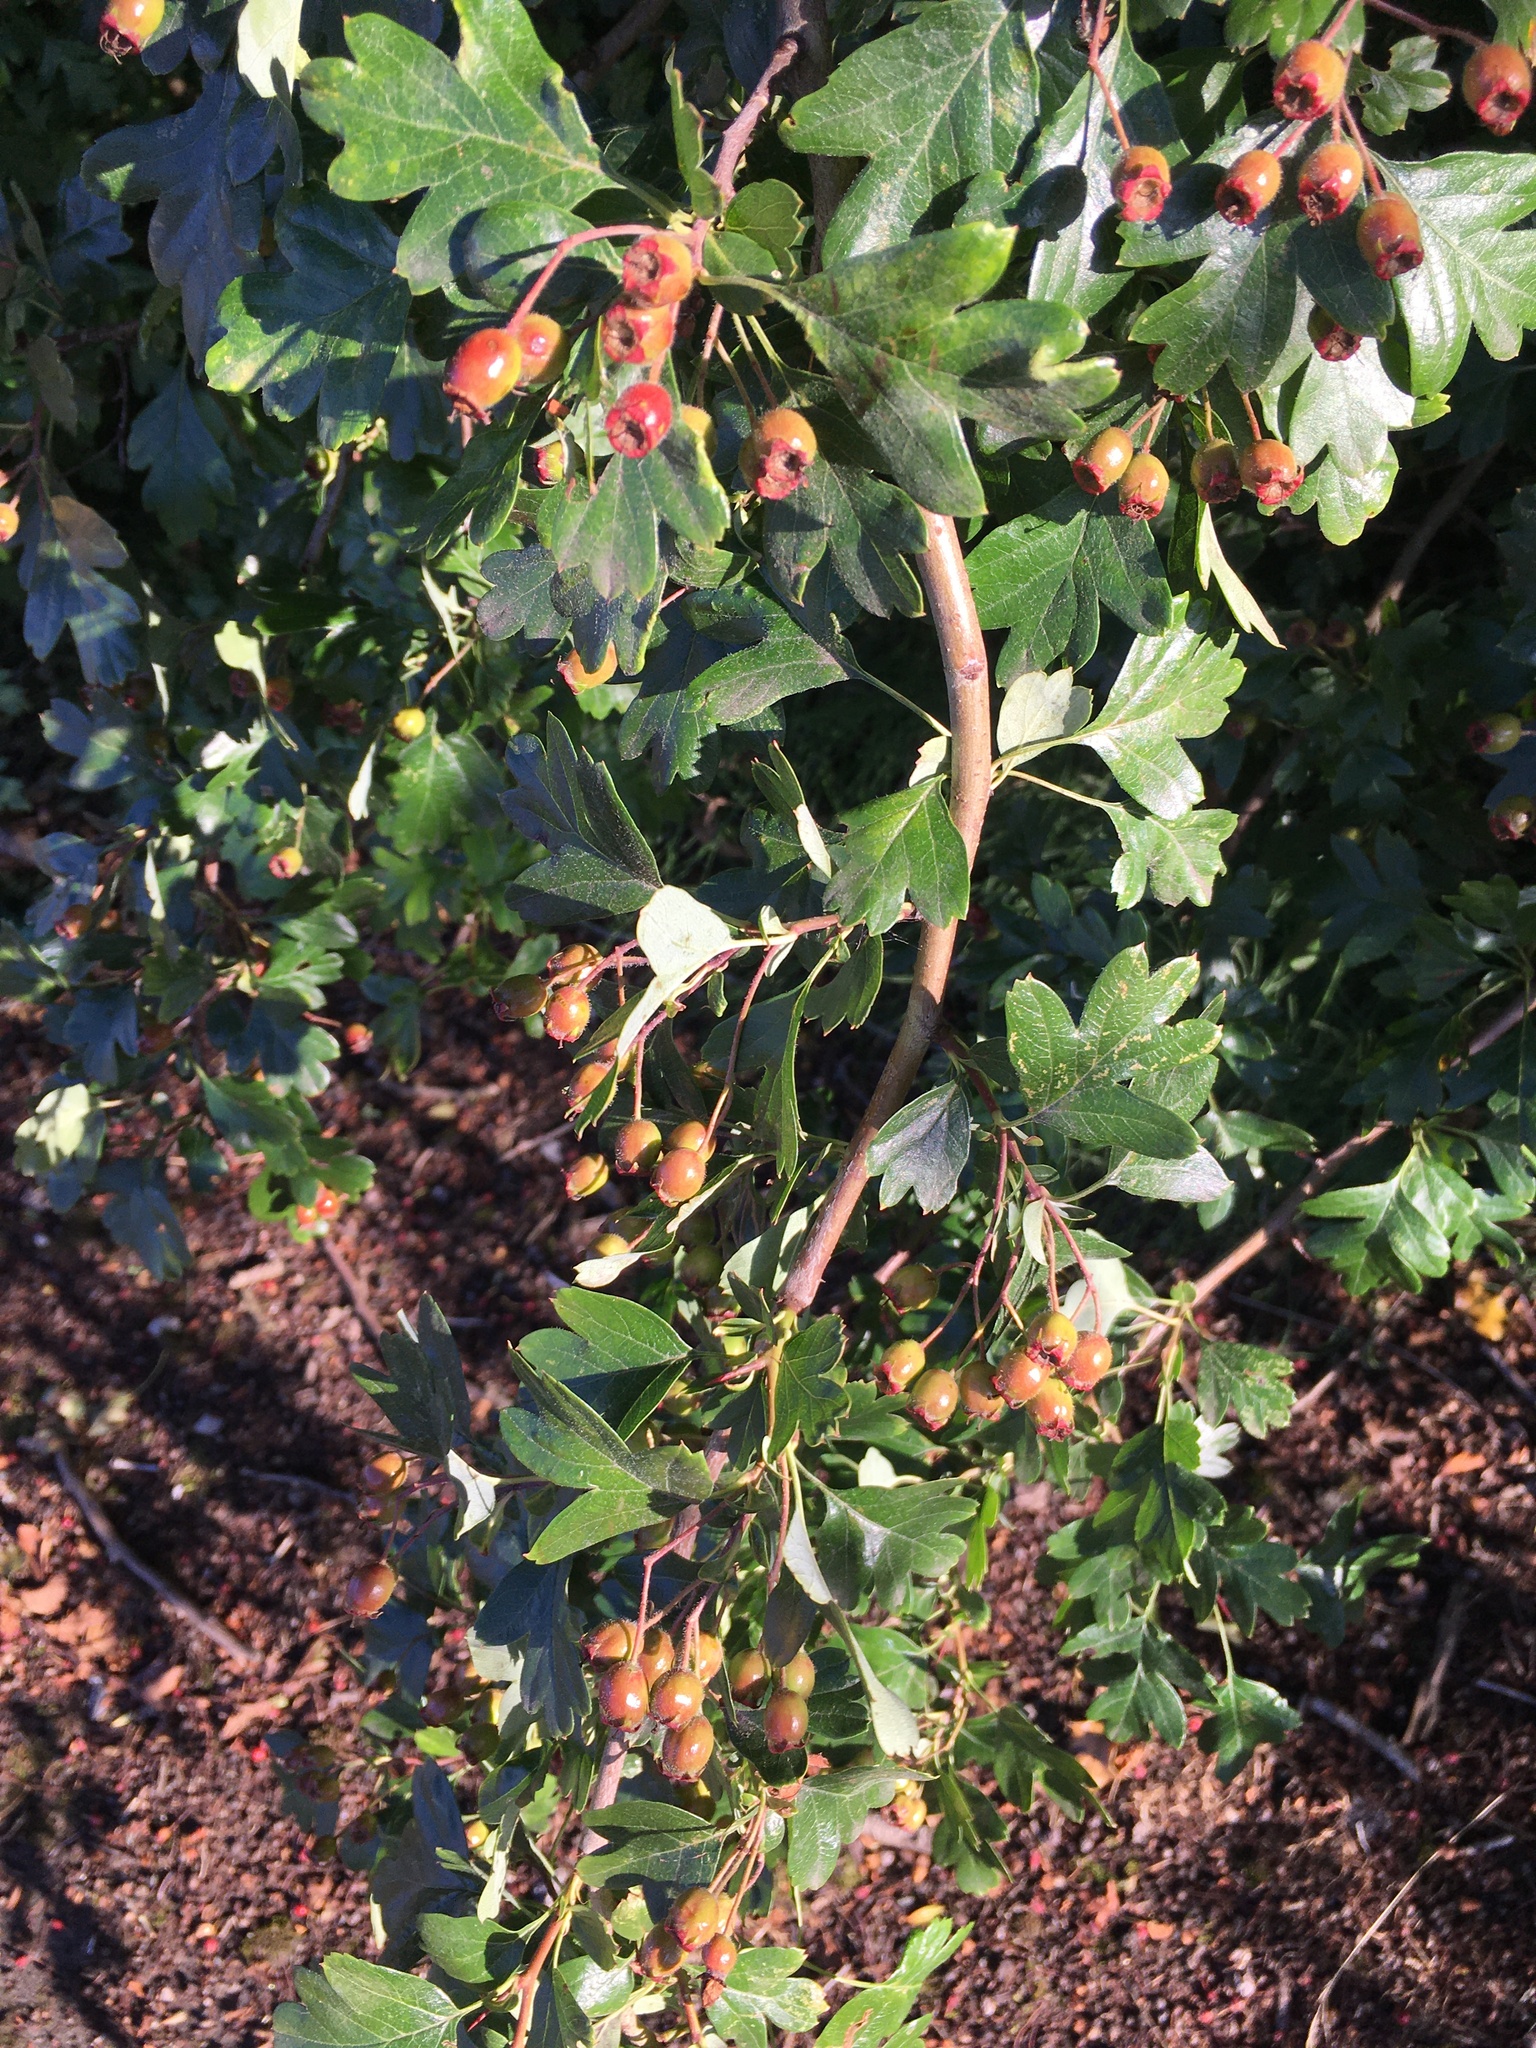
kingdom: Plantae
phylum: Tracheophyta
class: Magnoliopsida
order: Rosales
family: Rosaceae
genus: Crataegus
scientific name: Crataegus monogyna
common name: Hawthorn
